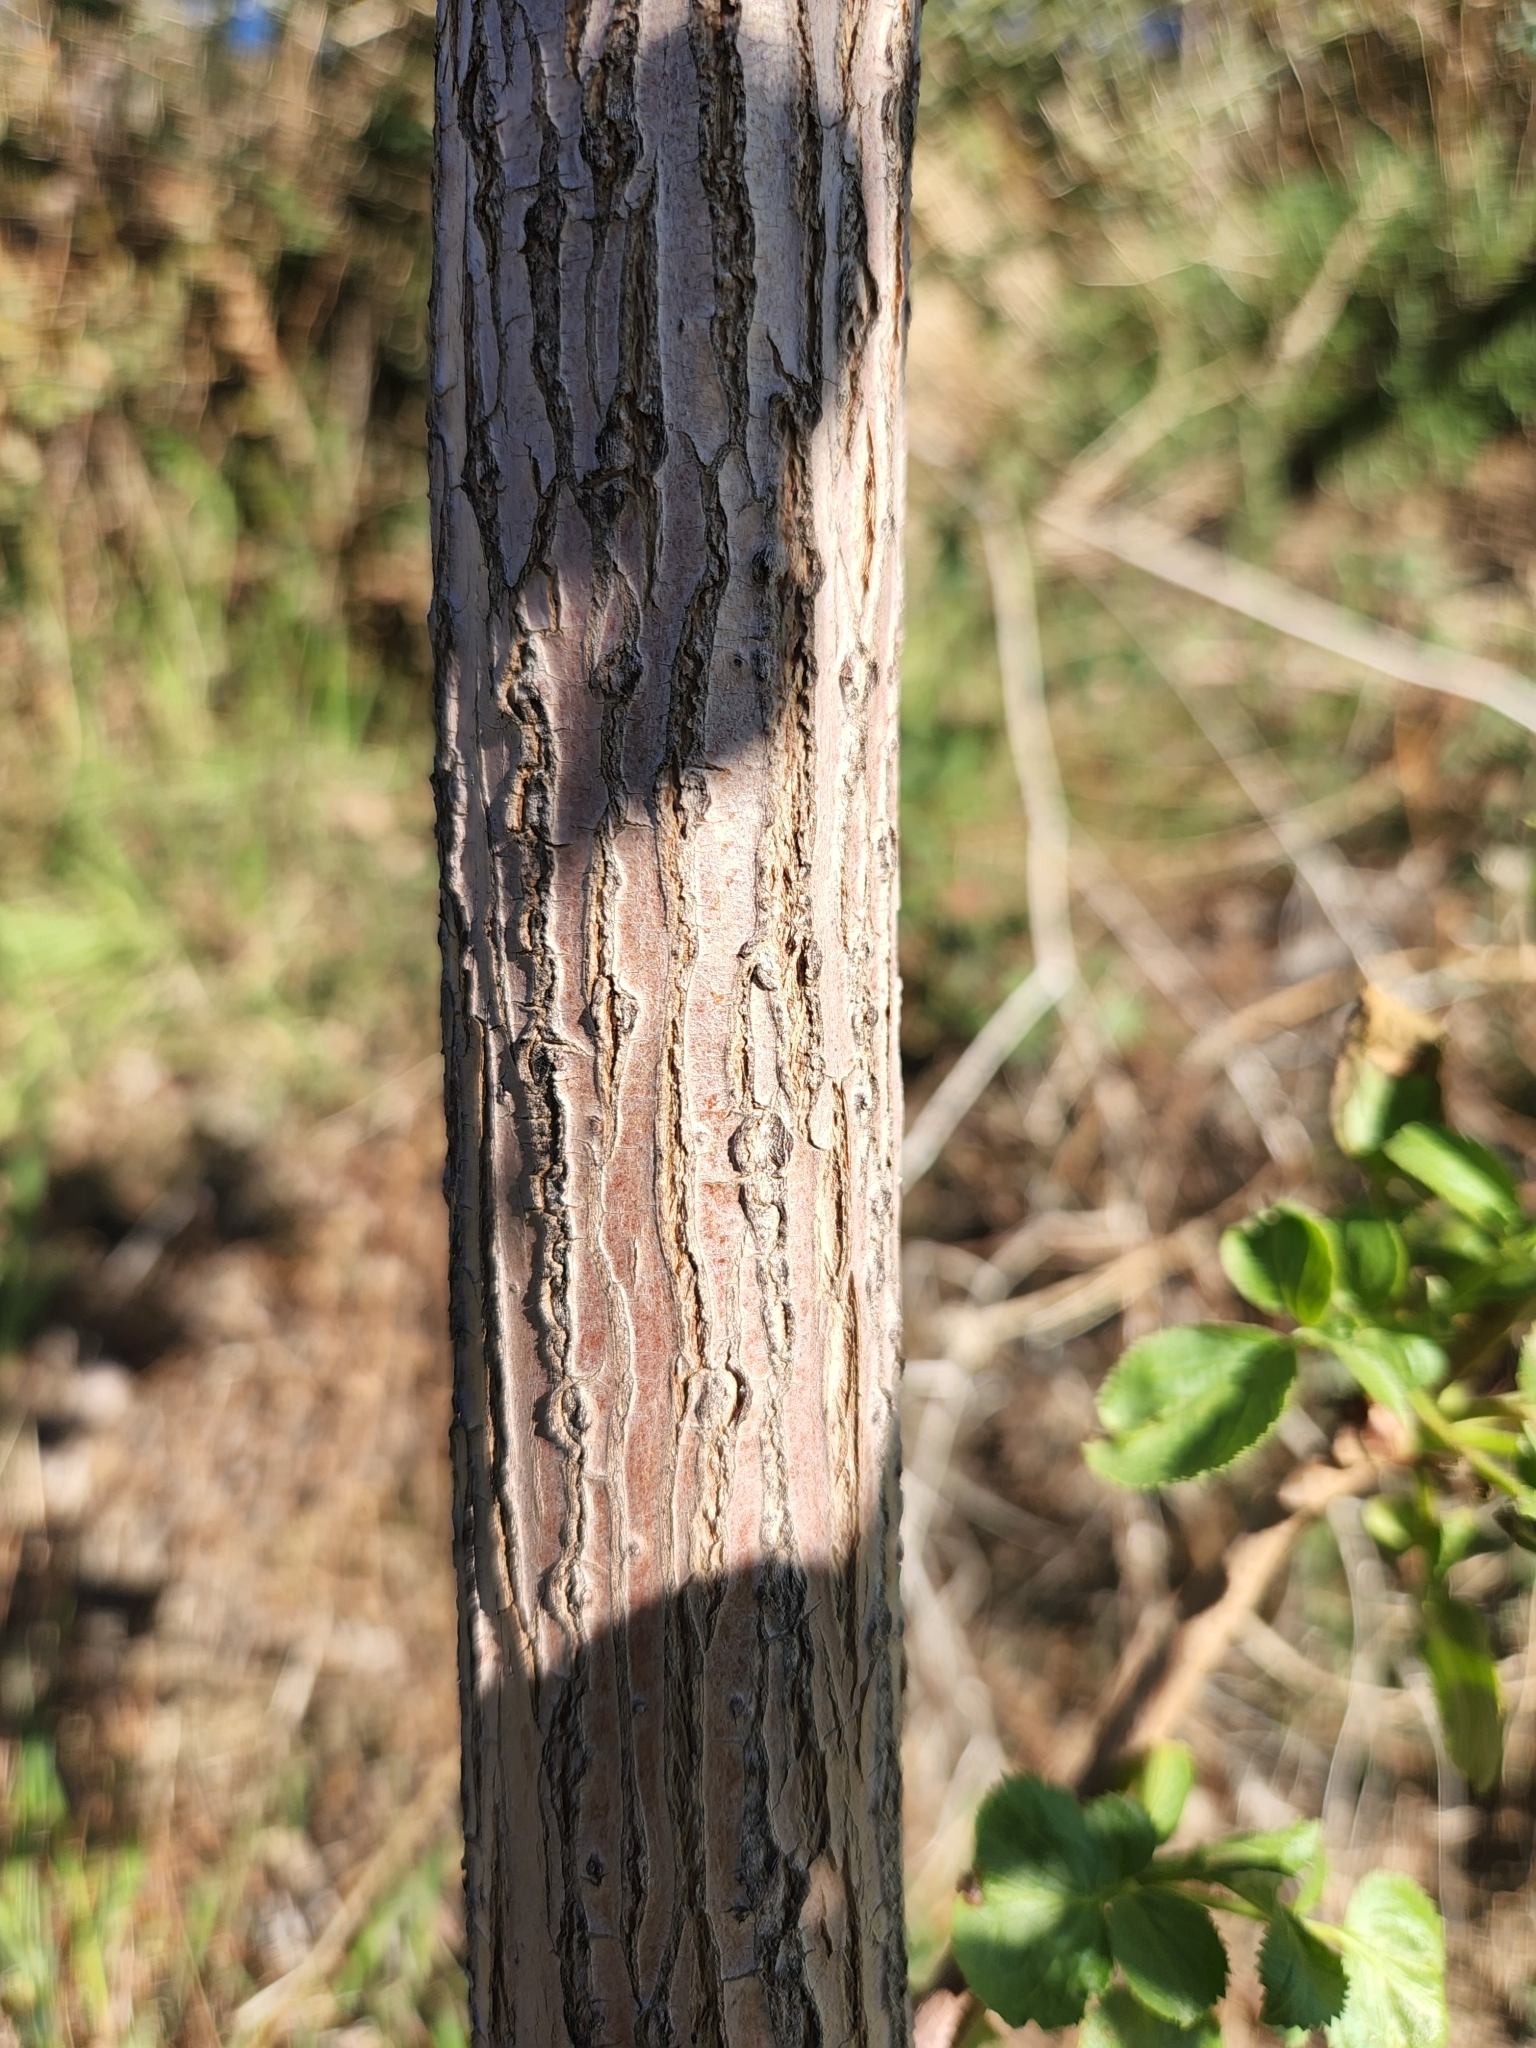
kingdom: Plantae
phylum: Tracheophyta
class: Magnoliopsida
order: Dipsacales
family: Viburnaceae
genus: Sambucus
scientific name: Sambucus cerulea
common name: Blue elder
